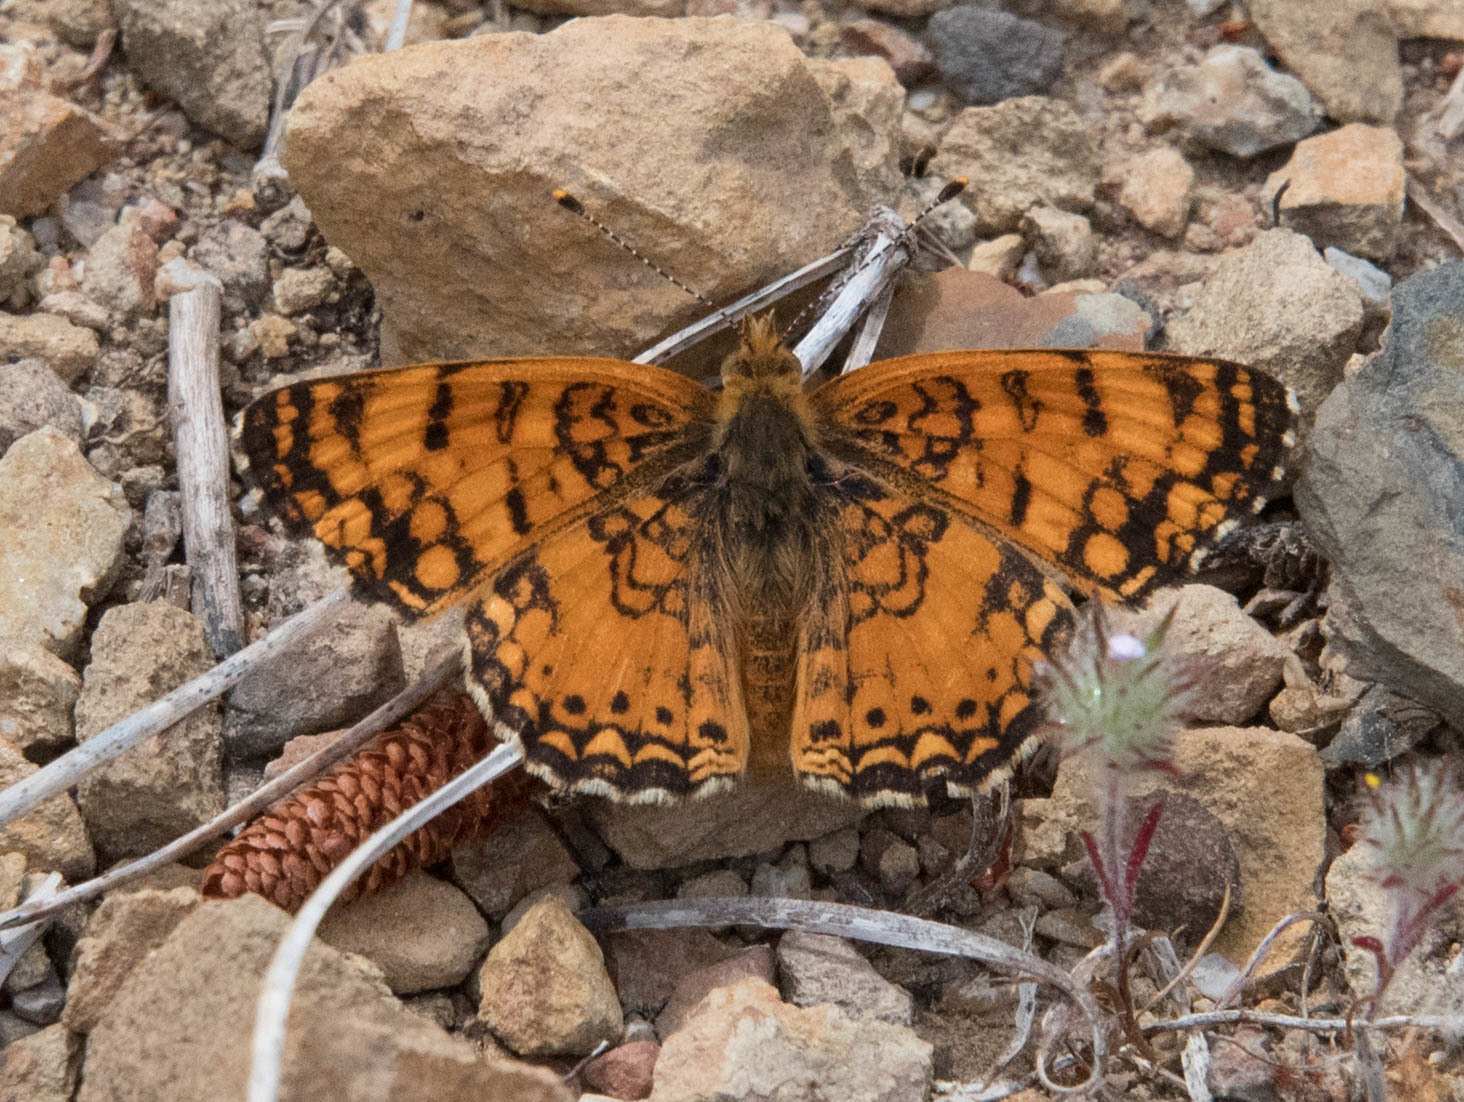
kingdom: Animalia
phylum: Arthropoda
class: Insecta
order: Lepidoptera
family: Nymphalidae
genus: Eresia
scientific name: Eresia aveyrona
